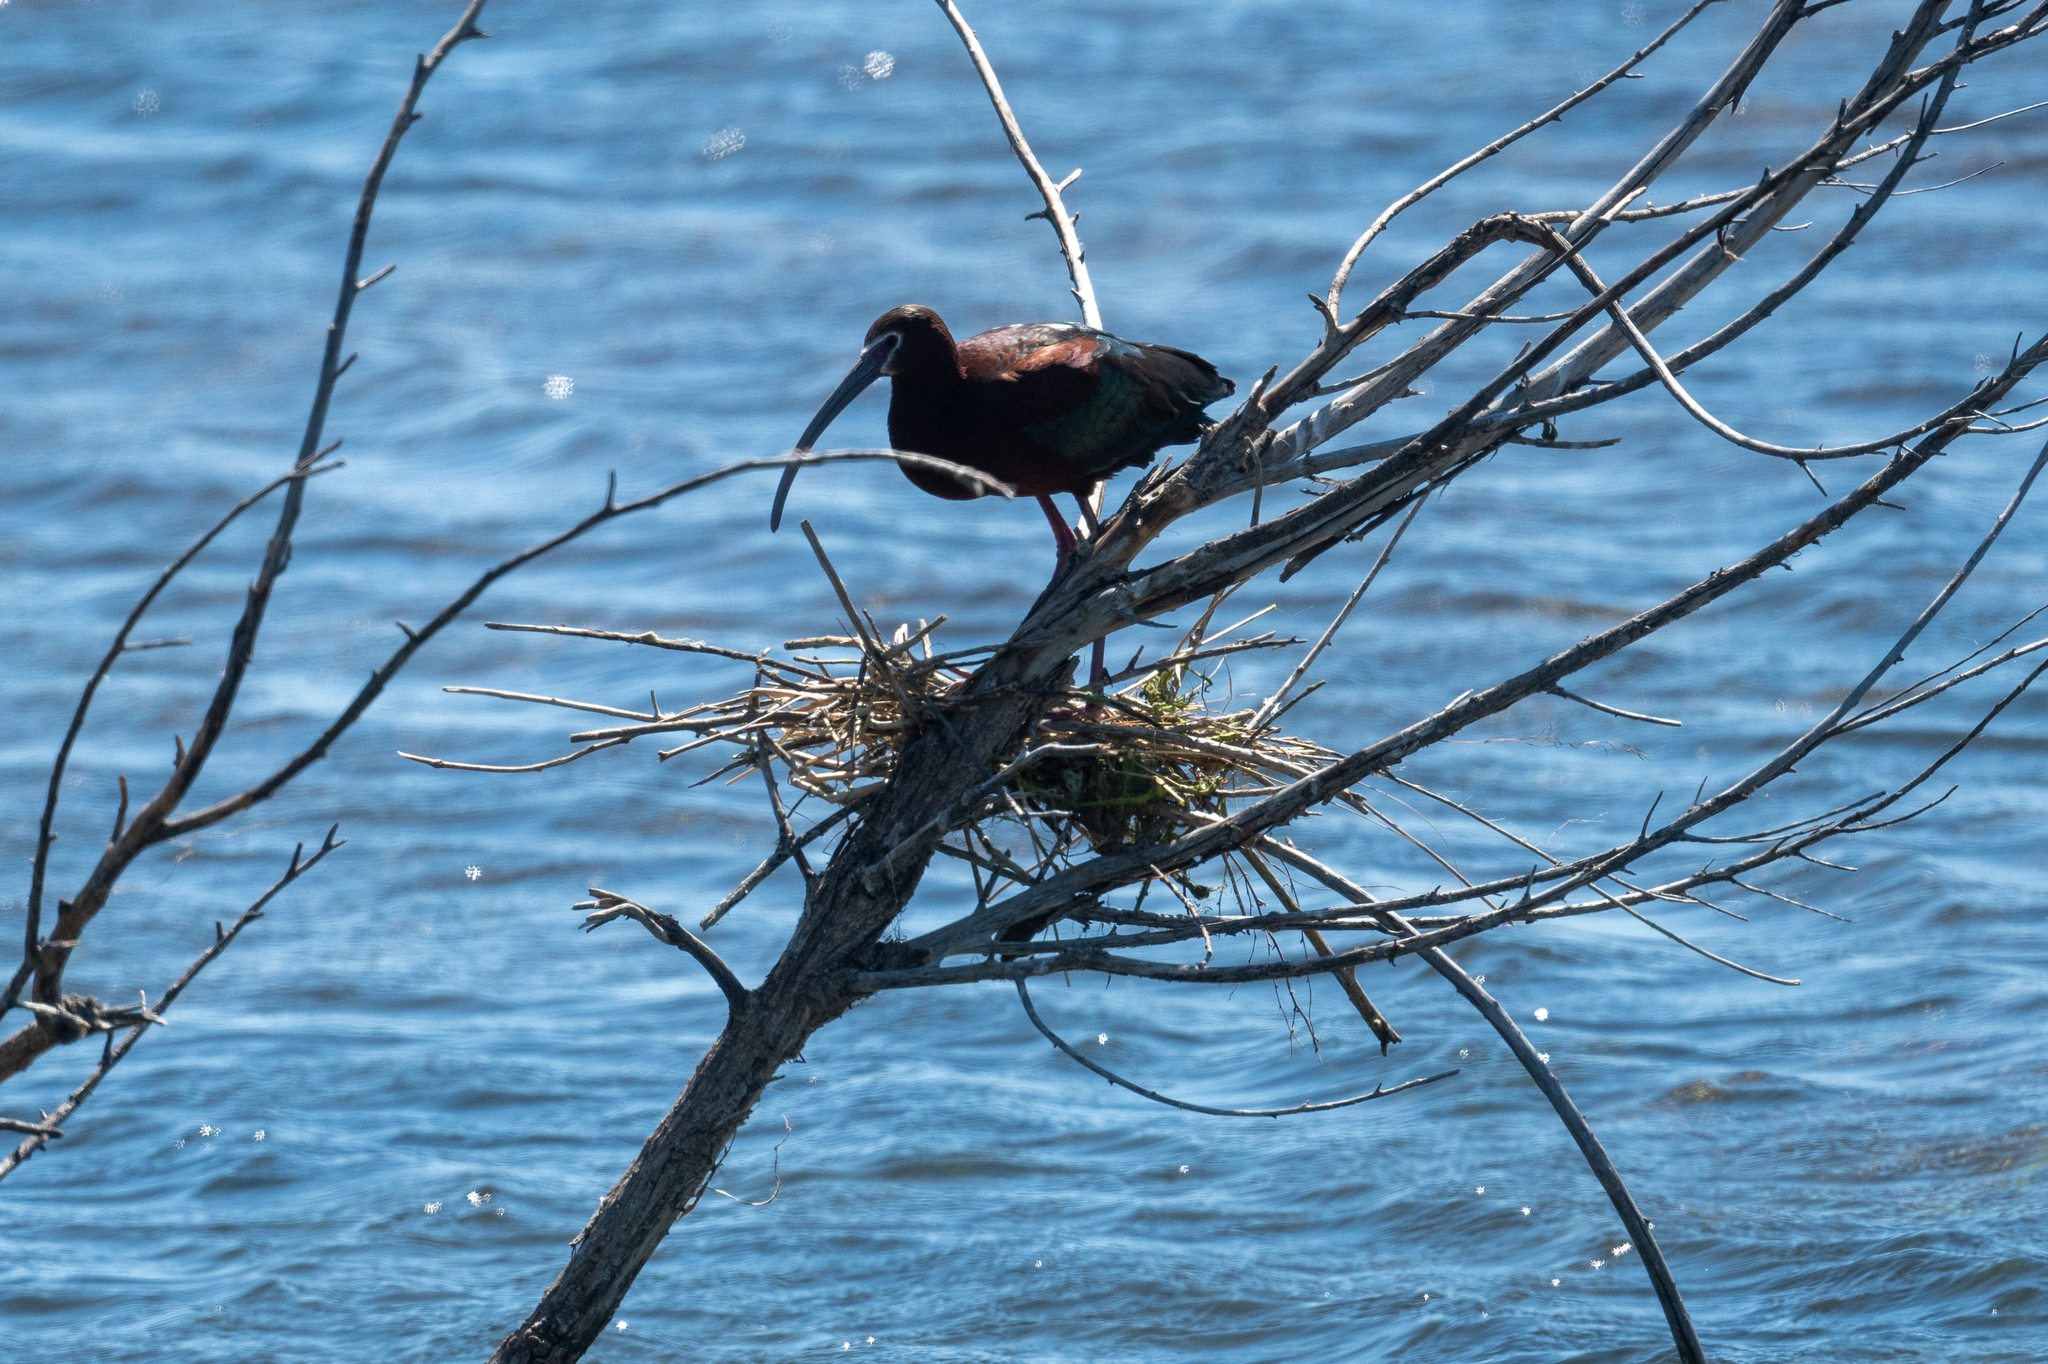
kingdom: Animalia
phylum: Chordata
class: Aves
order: Pelecaniformes
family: Threskiornithidae
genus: Plegadis
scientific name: Plegadis chihi
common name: White-faced ibis
